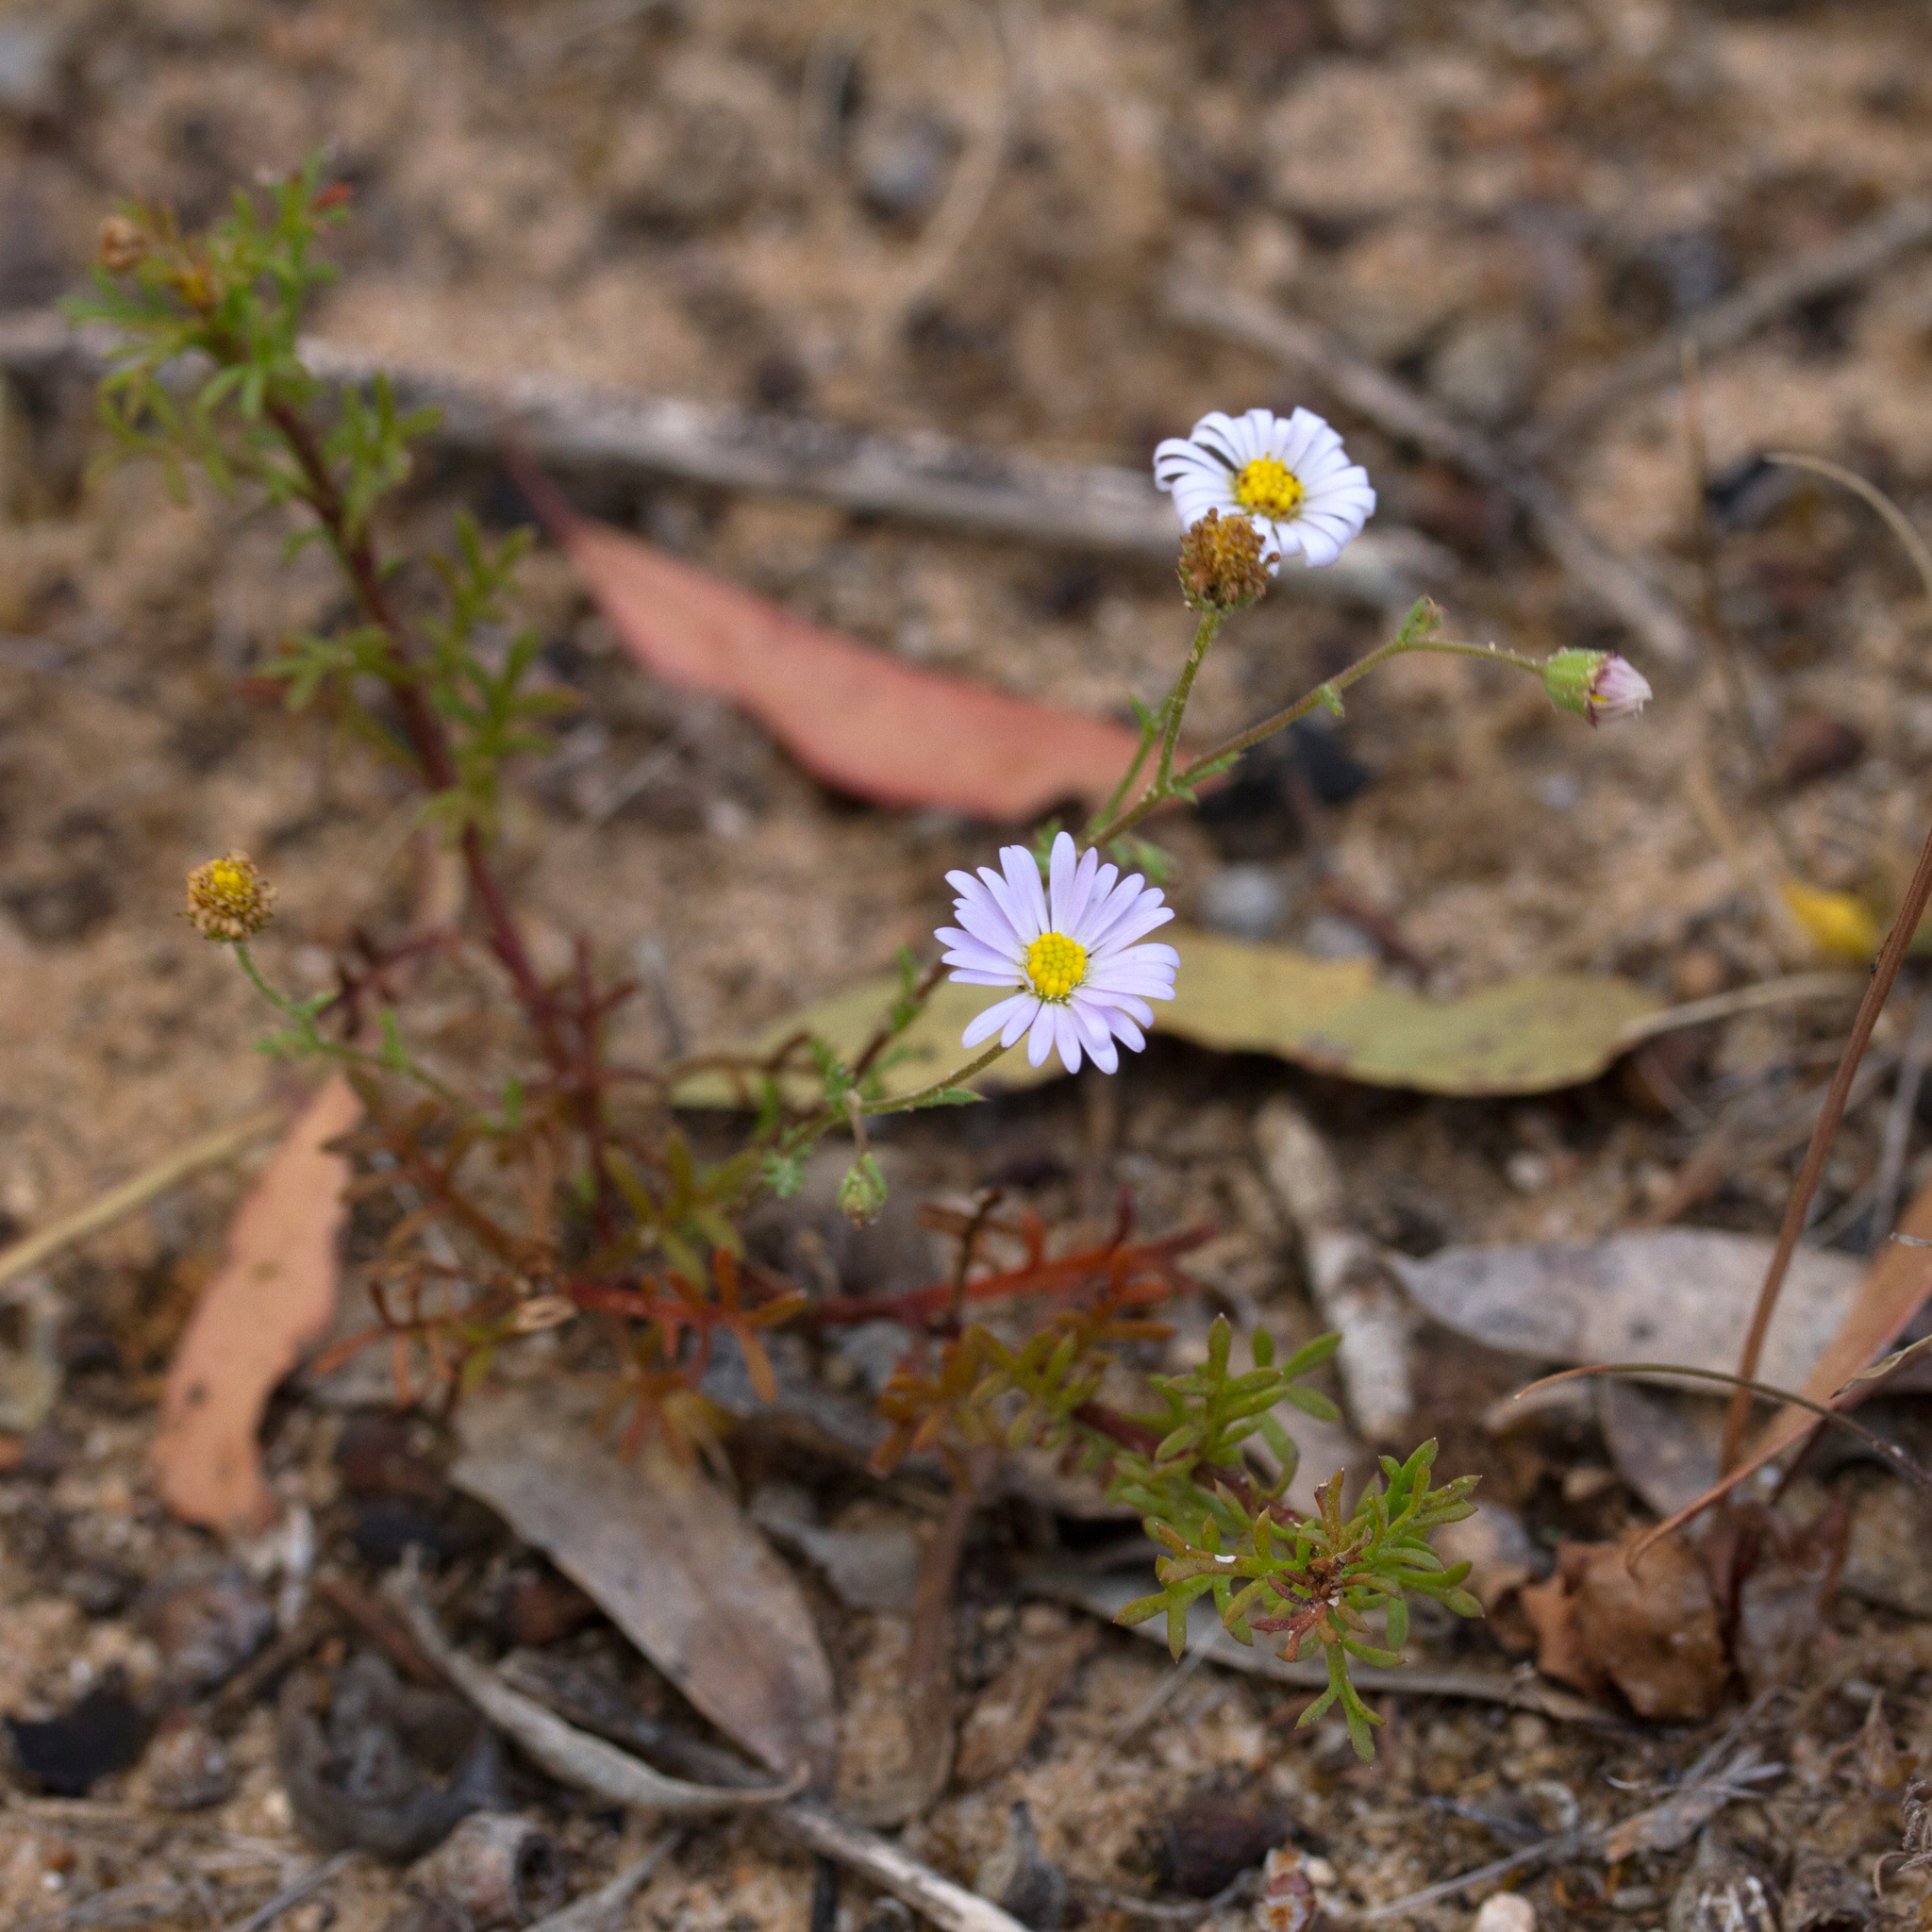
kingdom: Plantae
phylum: Tracheophyta
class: Magnoliopsida
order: Asterales
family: Asteraceae
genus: Brachyscome
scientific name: Brachyscome ciliaris
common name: Variable daisy
